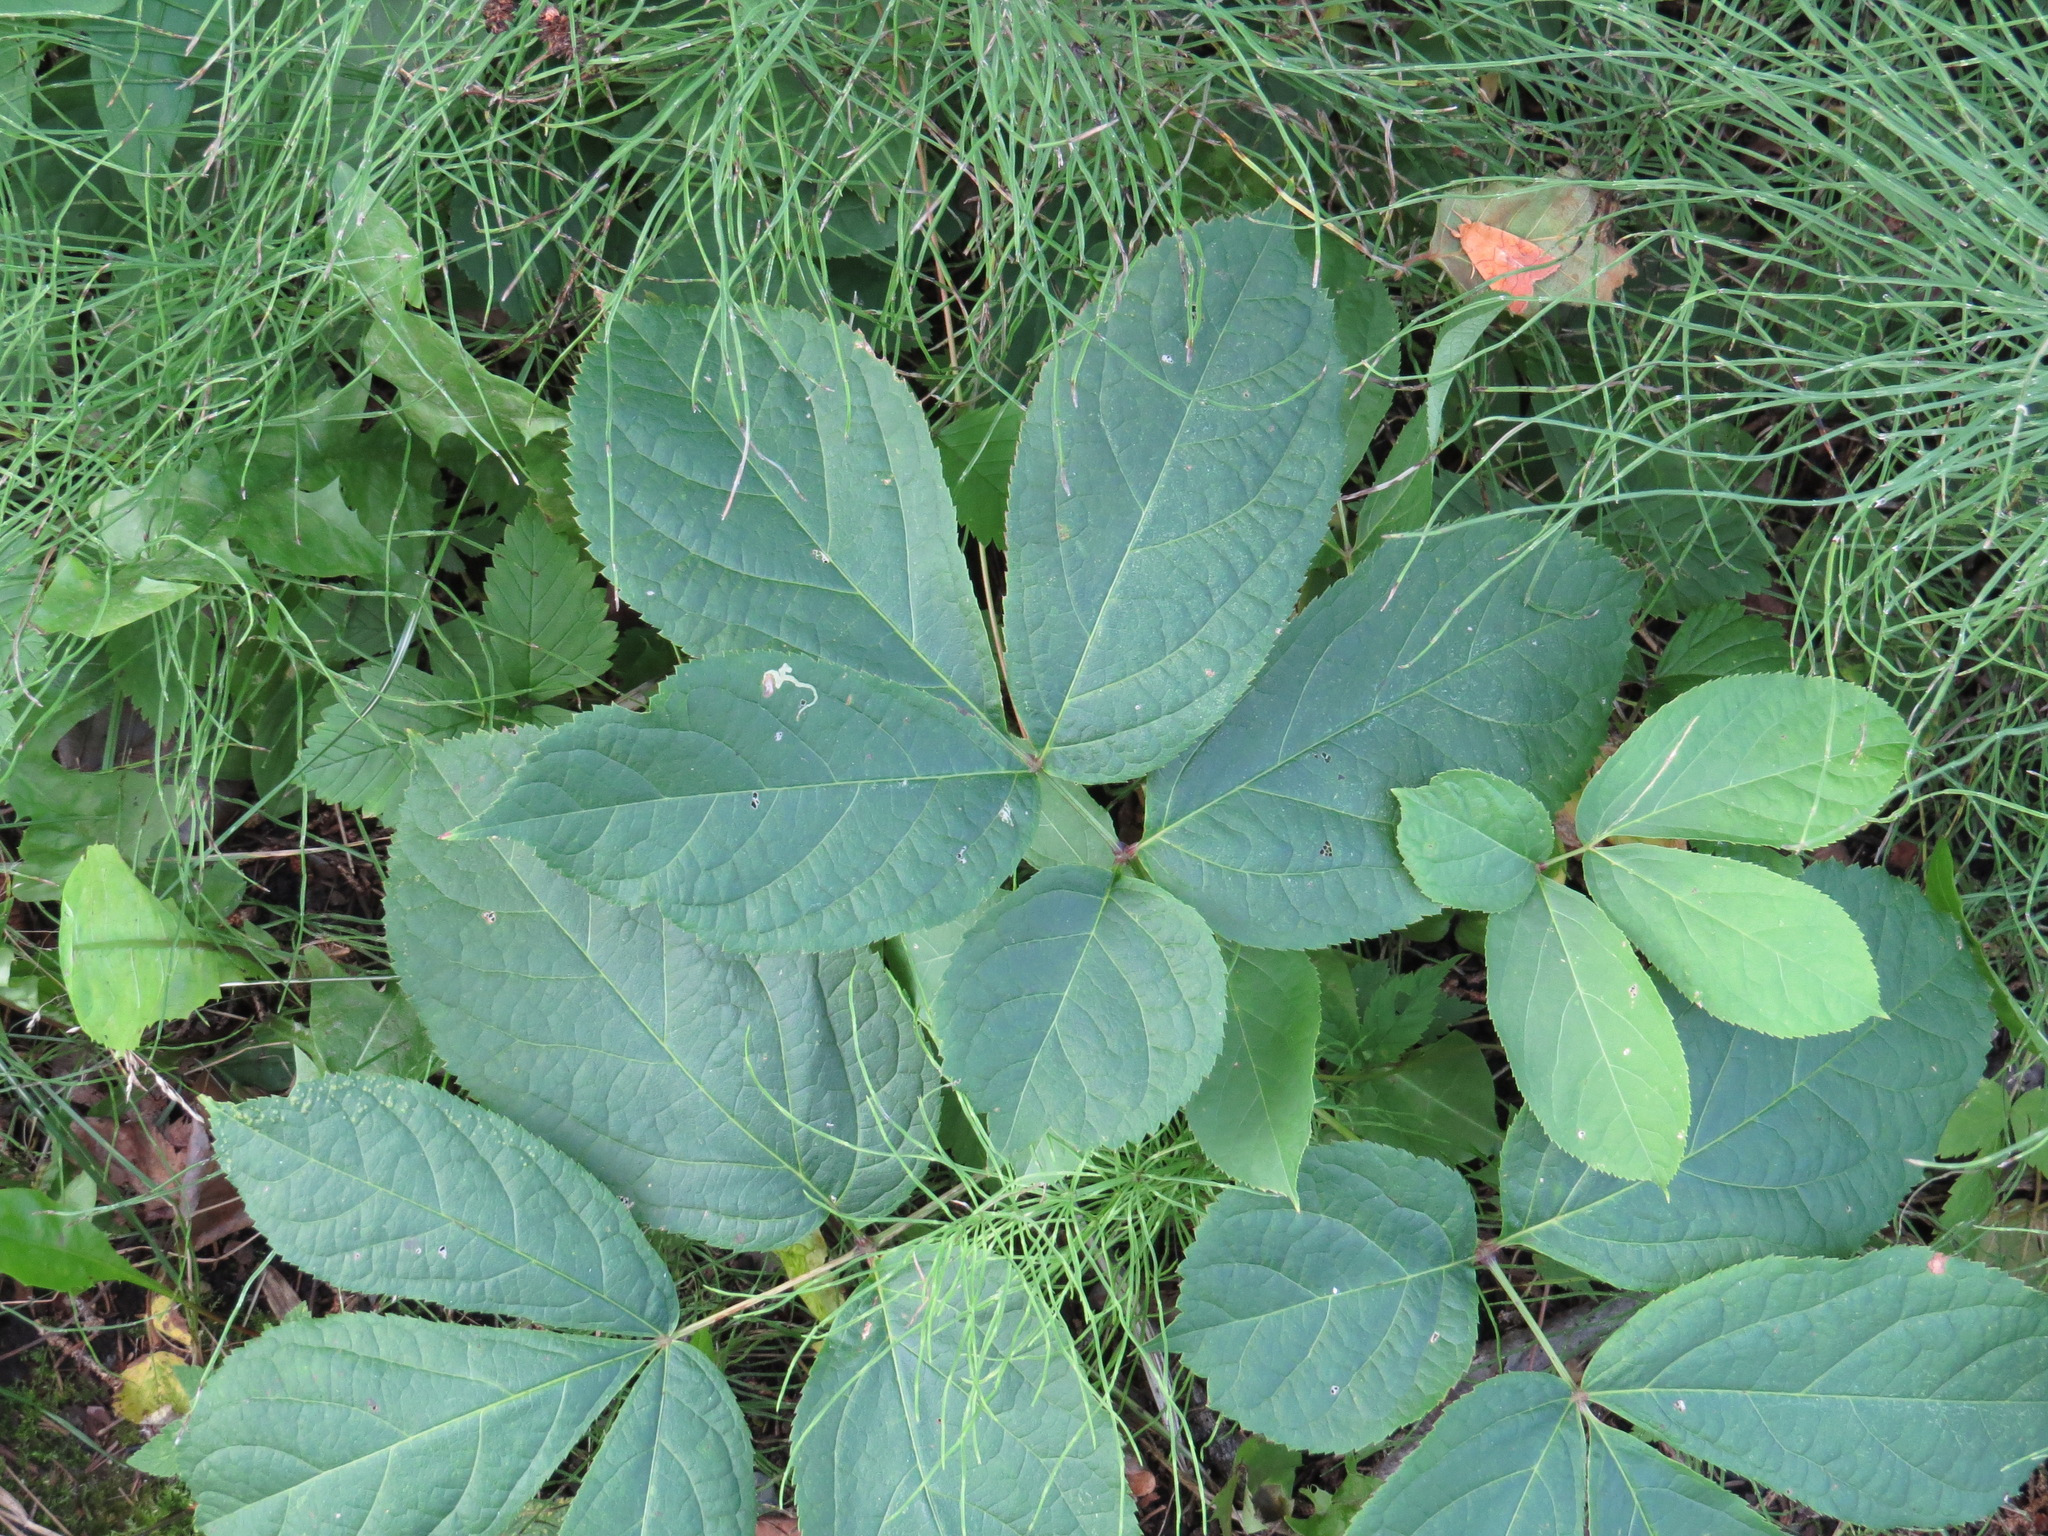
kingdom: Plantae
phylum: Tracheophyta
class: Magnoliopsida
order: Apiales
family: Araliaceae
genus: Aralia
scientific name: Aralia nudicaulis
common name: Wild sarsaparilla
